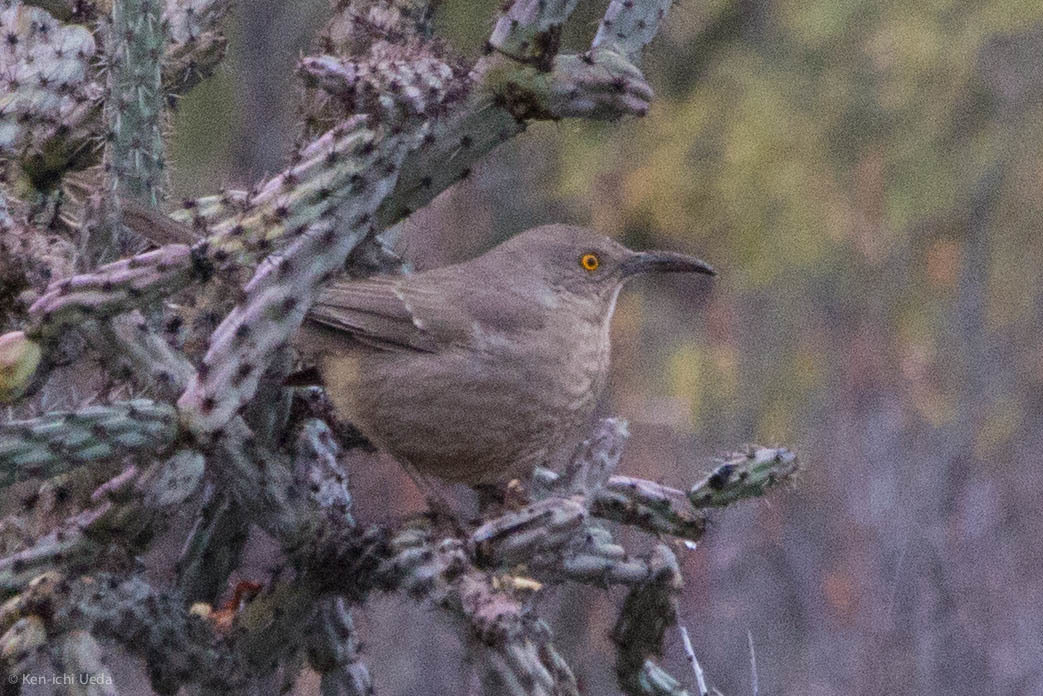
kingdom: Animalia
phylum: Chordata
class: Aves
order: Passeriformes
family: Mimidae
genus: Toxostoma
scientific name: Toxostoma curvirostre
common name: Curve-billed thrasher
